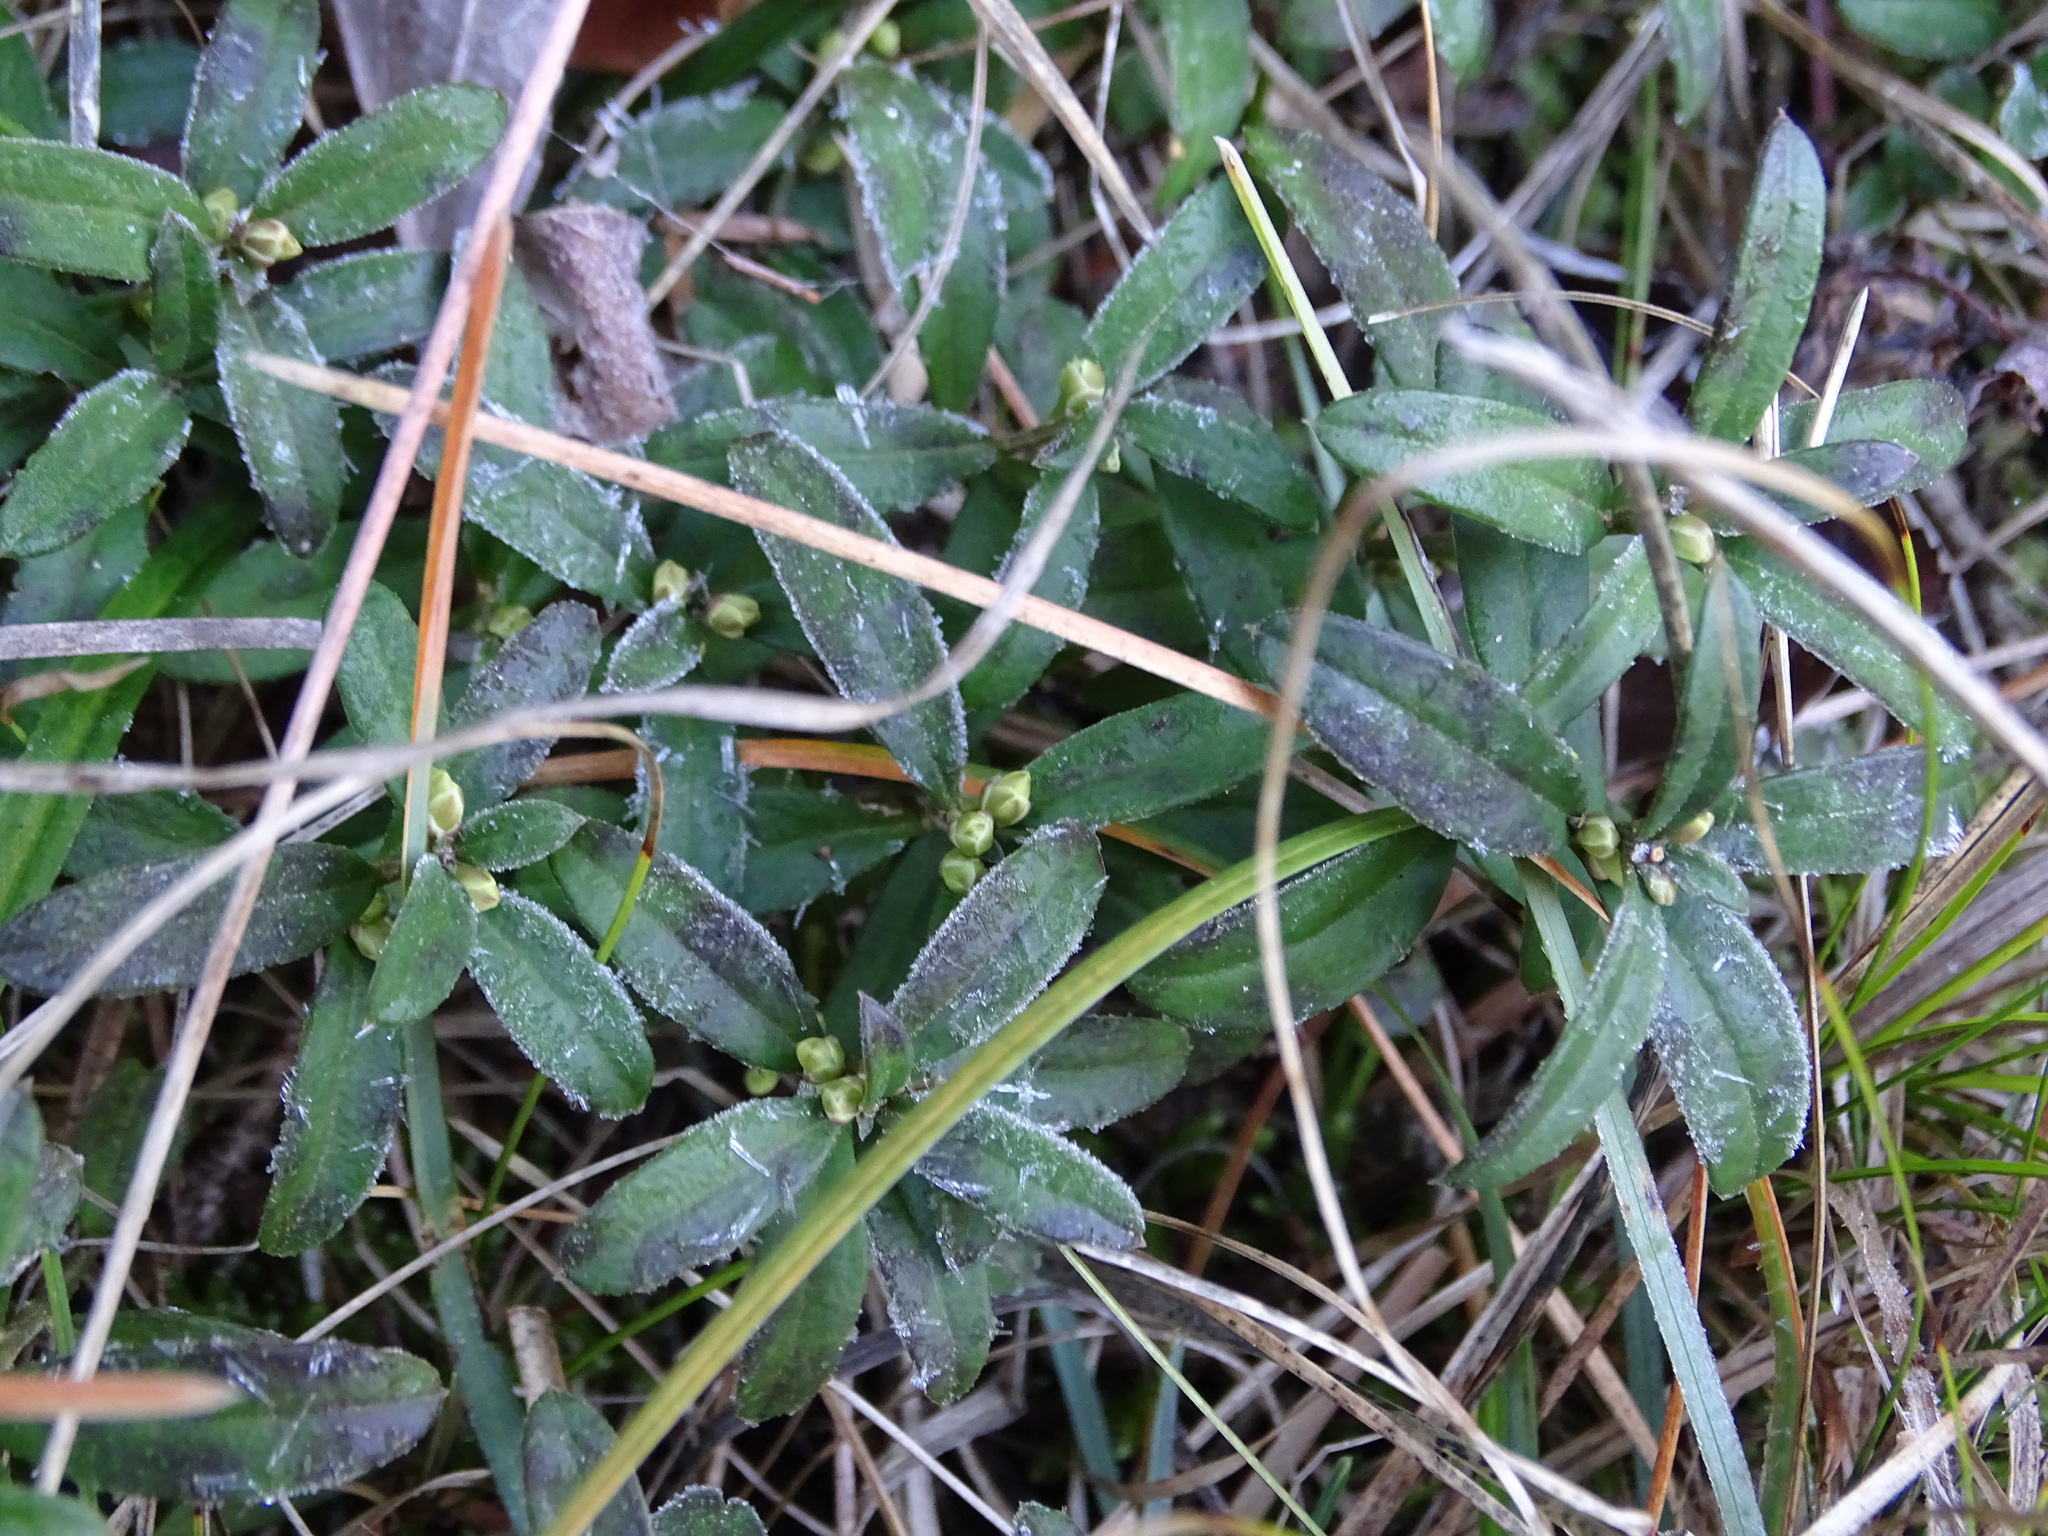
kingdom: Plantae
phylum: Tracheophyta
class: Magnoliopsida
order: Fabales
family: Polygalaceae
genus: Polygaloides
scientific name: Polygaloides chamaebuxus
